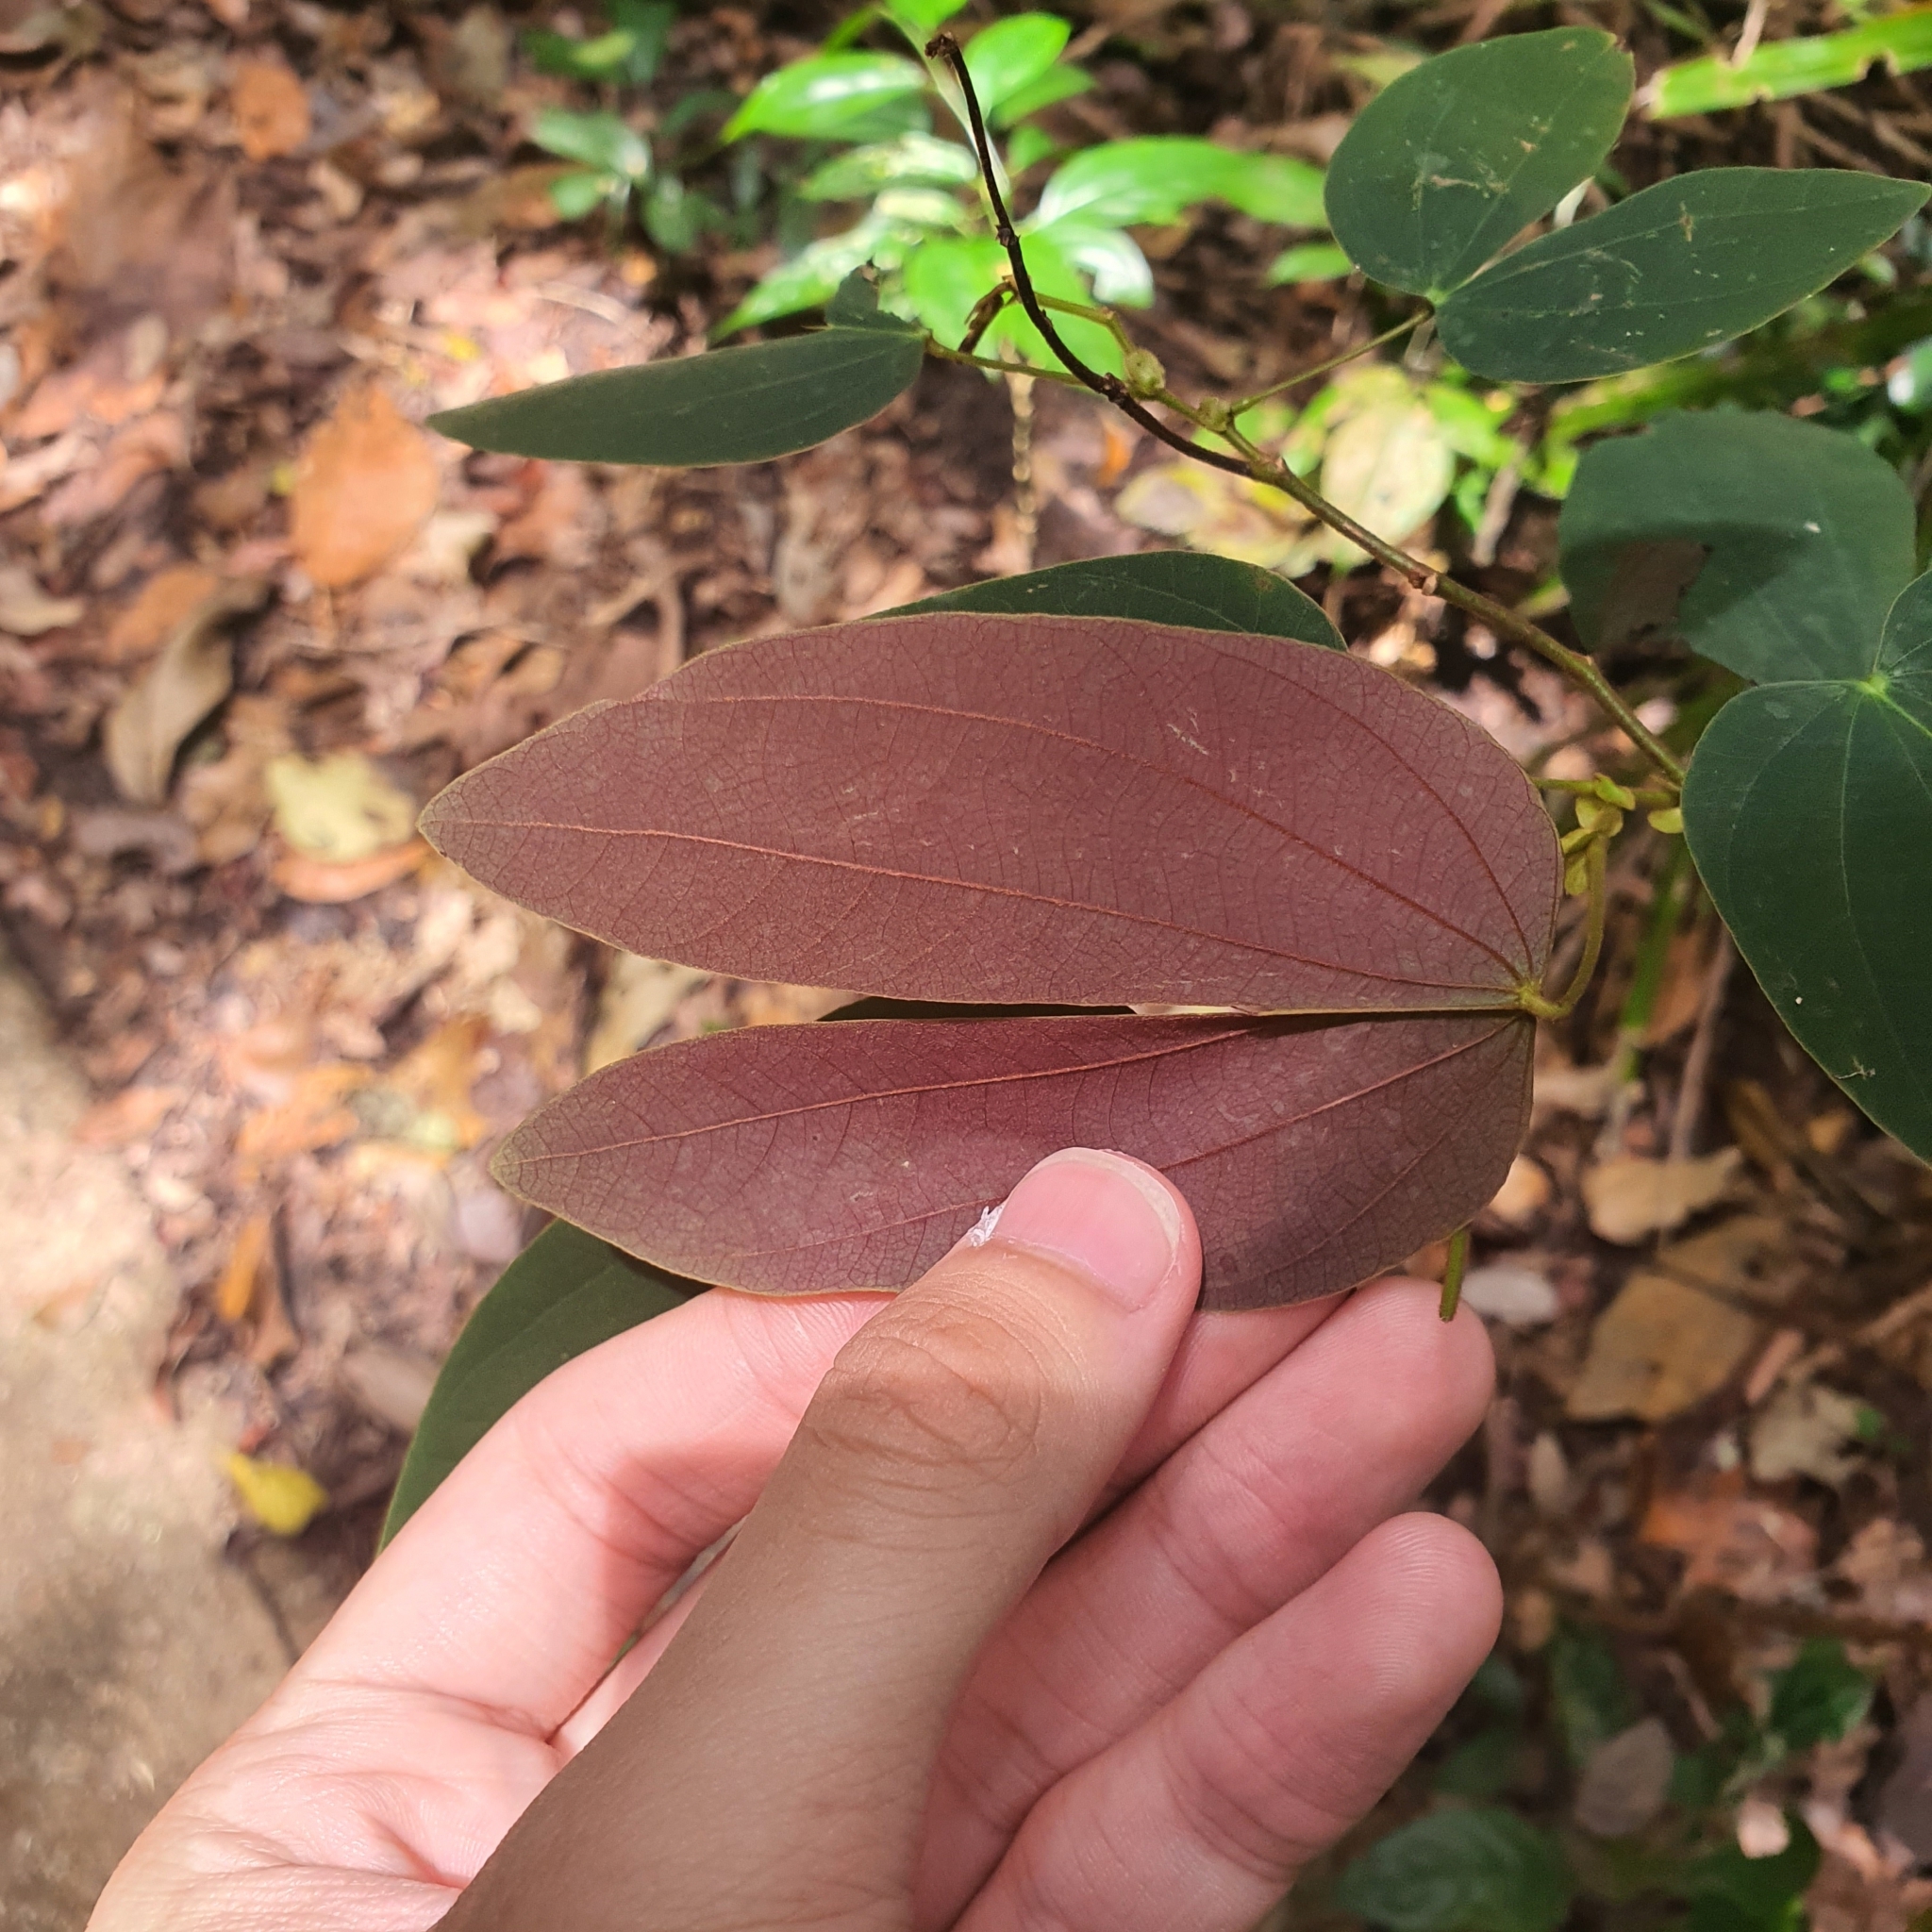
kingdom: Plantae
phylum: Tracheophyta
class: Magnoliopsida
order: Fabales
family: Fabaceae
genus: Phanera
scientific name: Phanera ferruginea
